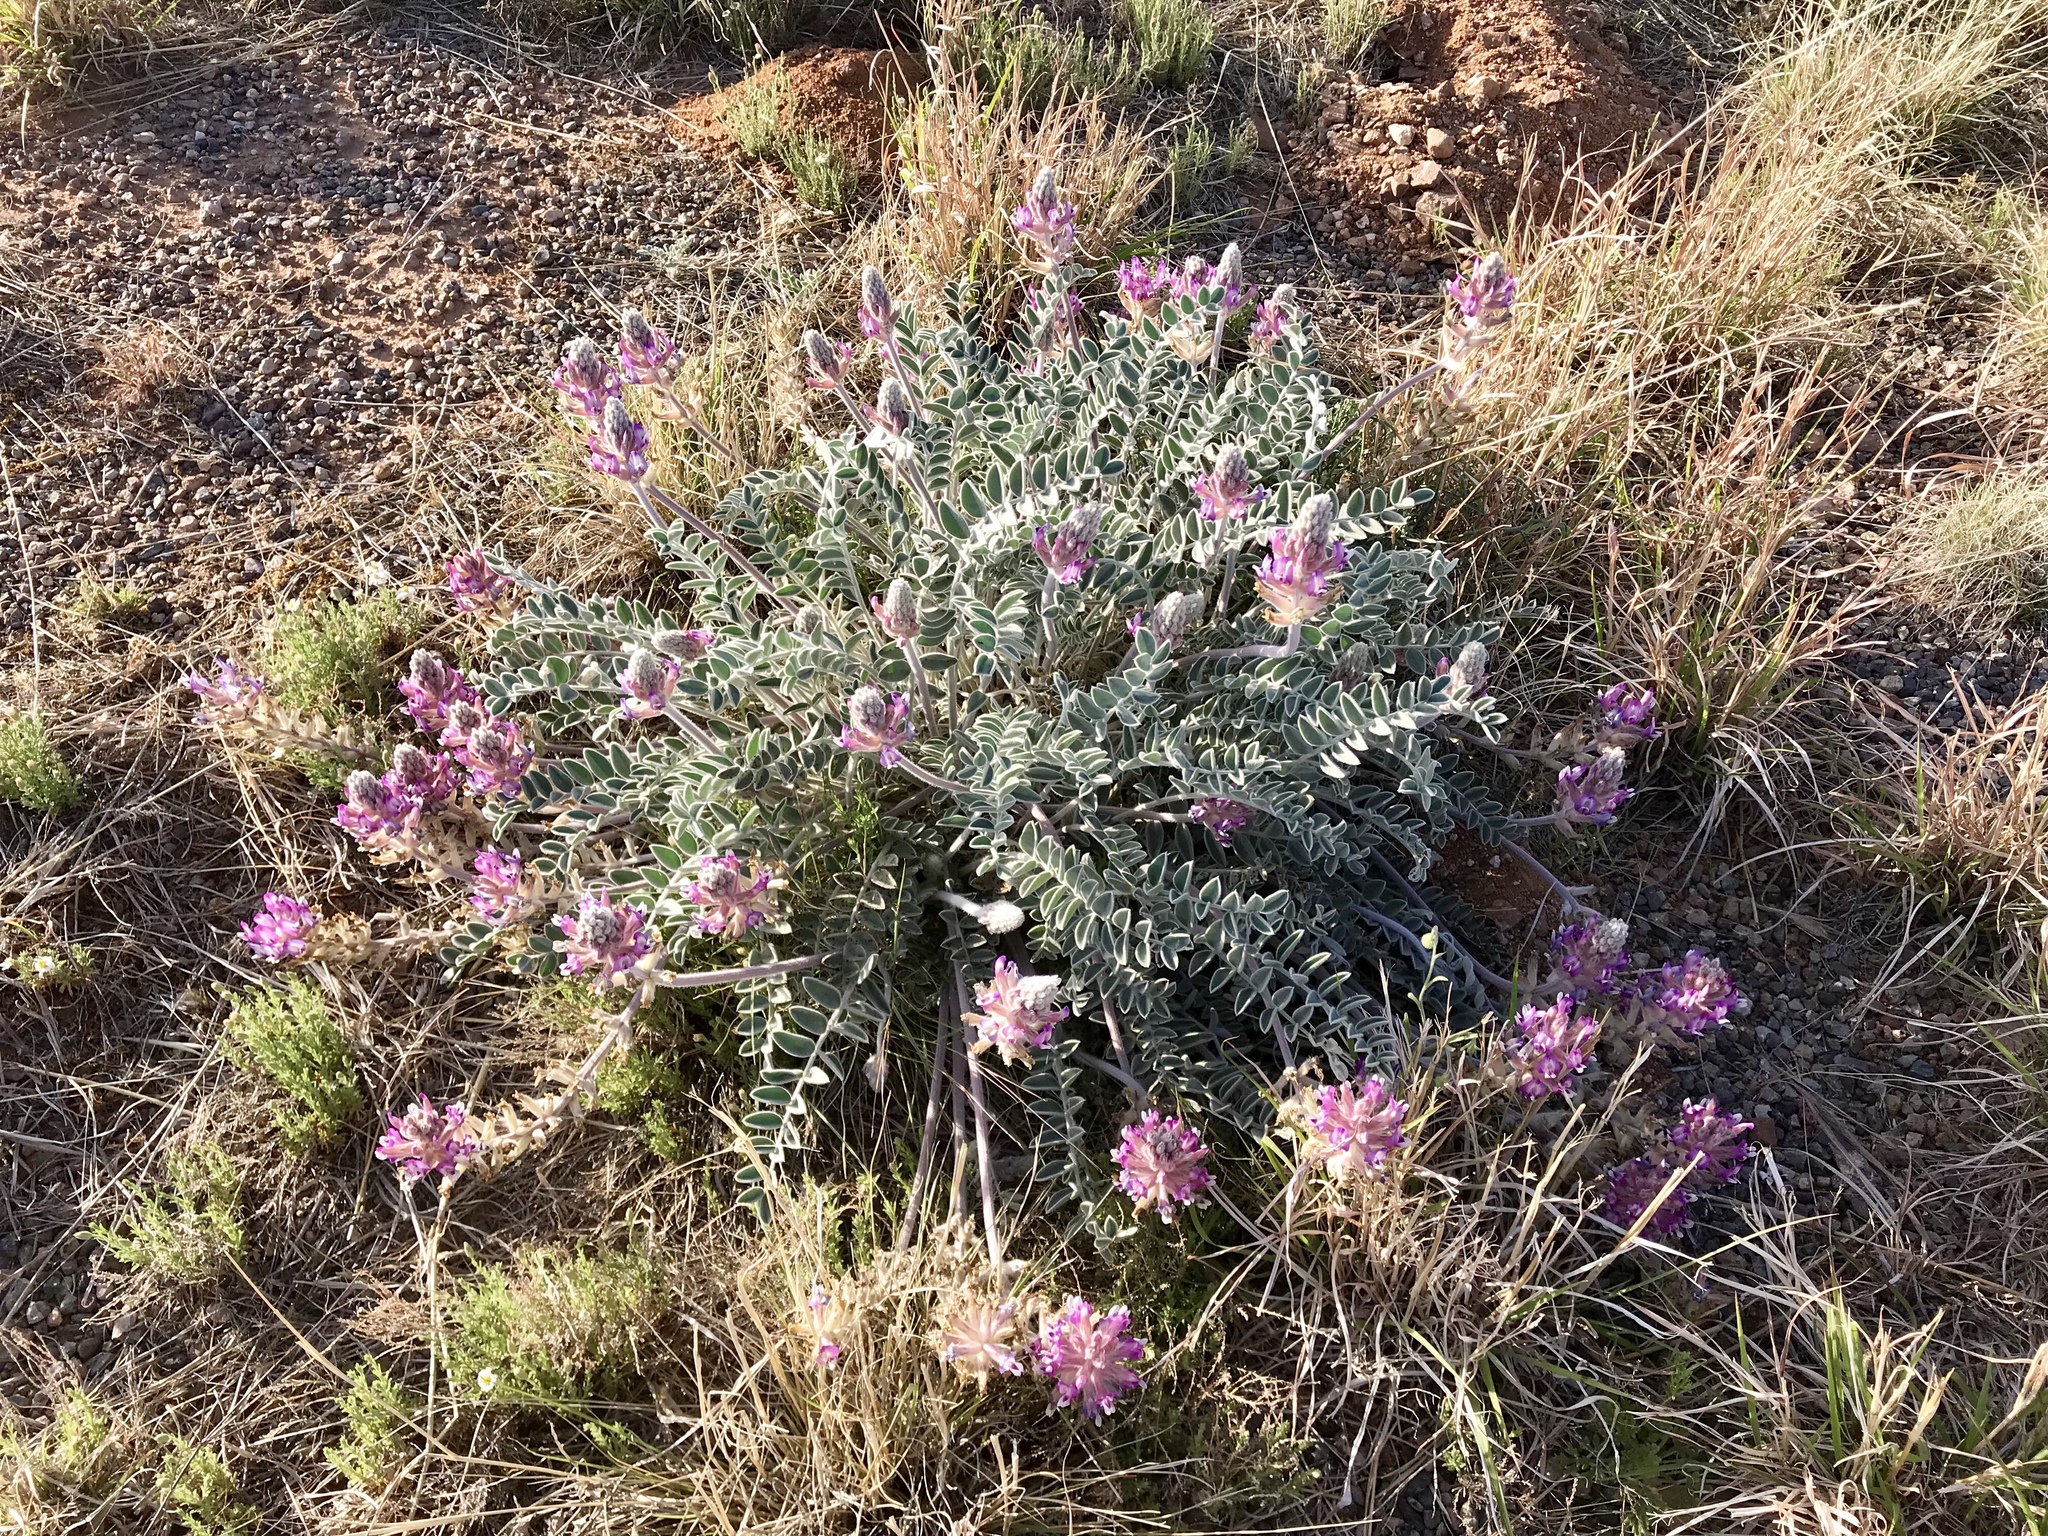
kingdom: Plantae
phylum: Tracheophyta
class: Magnoliopsida
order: Fabales
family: Fabaceae
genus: Astragalus
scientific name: Astragalus mollissimus
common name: Woolly locoweed
